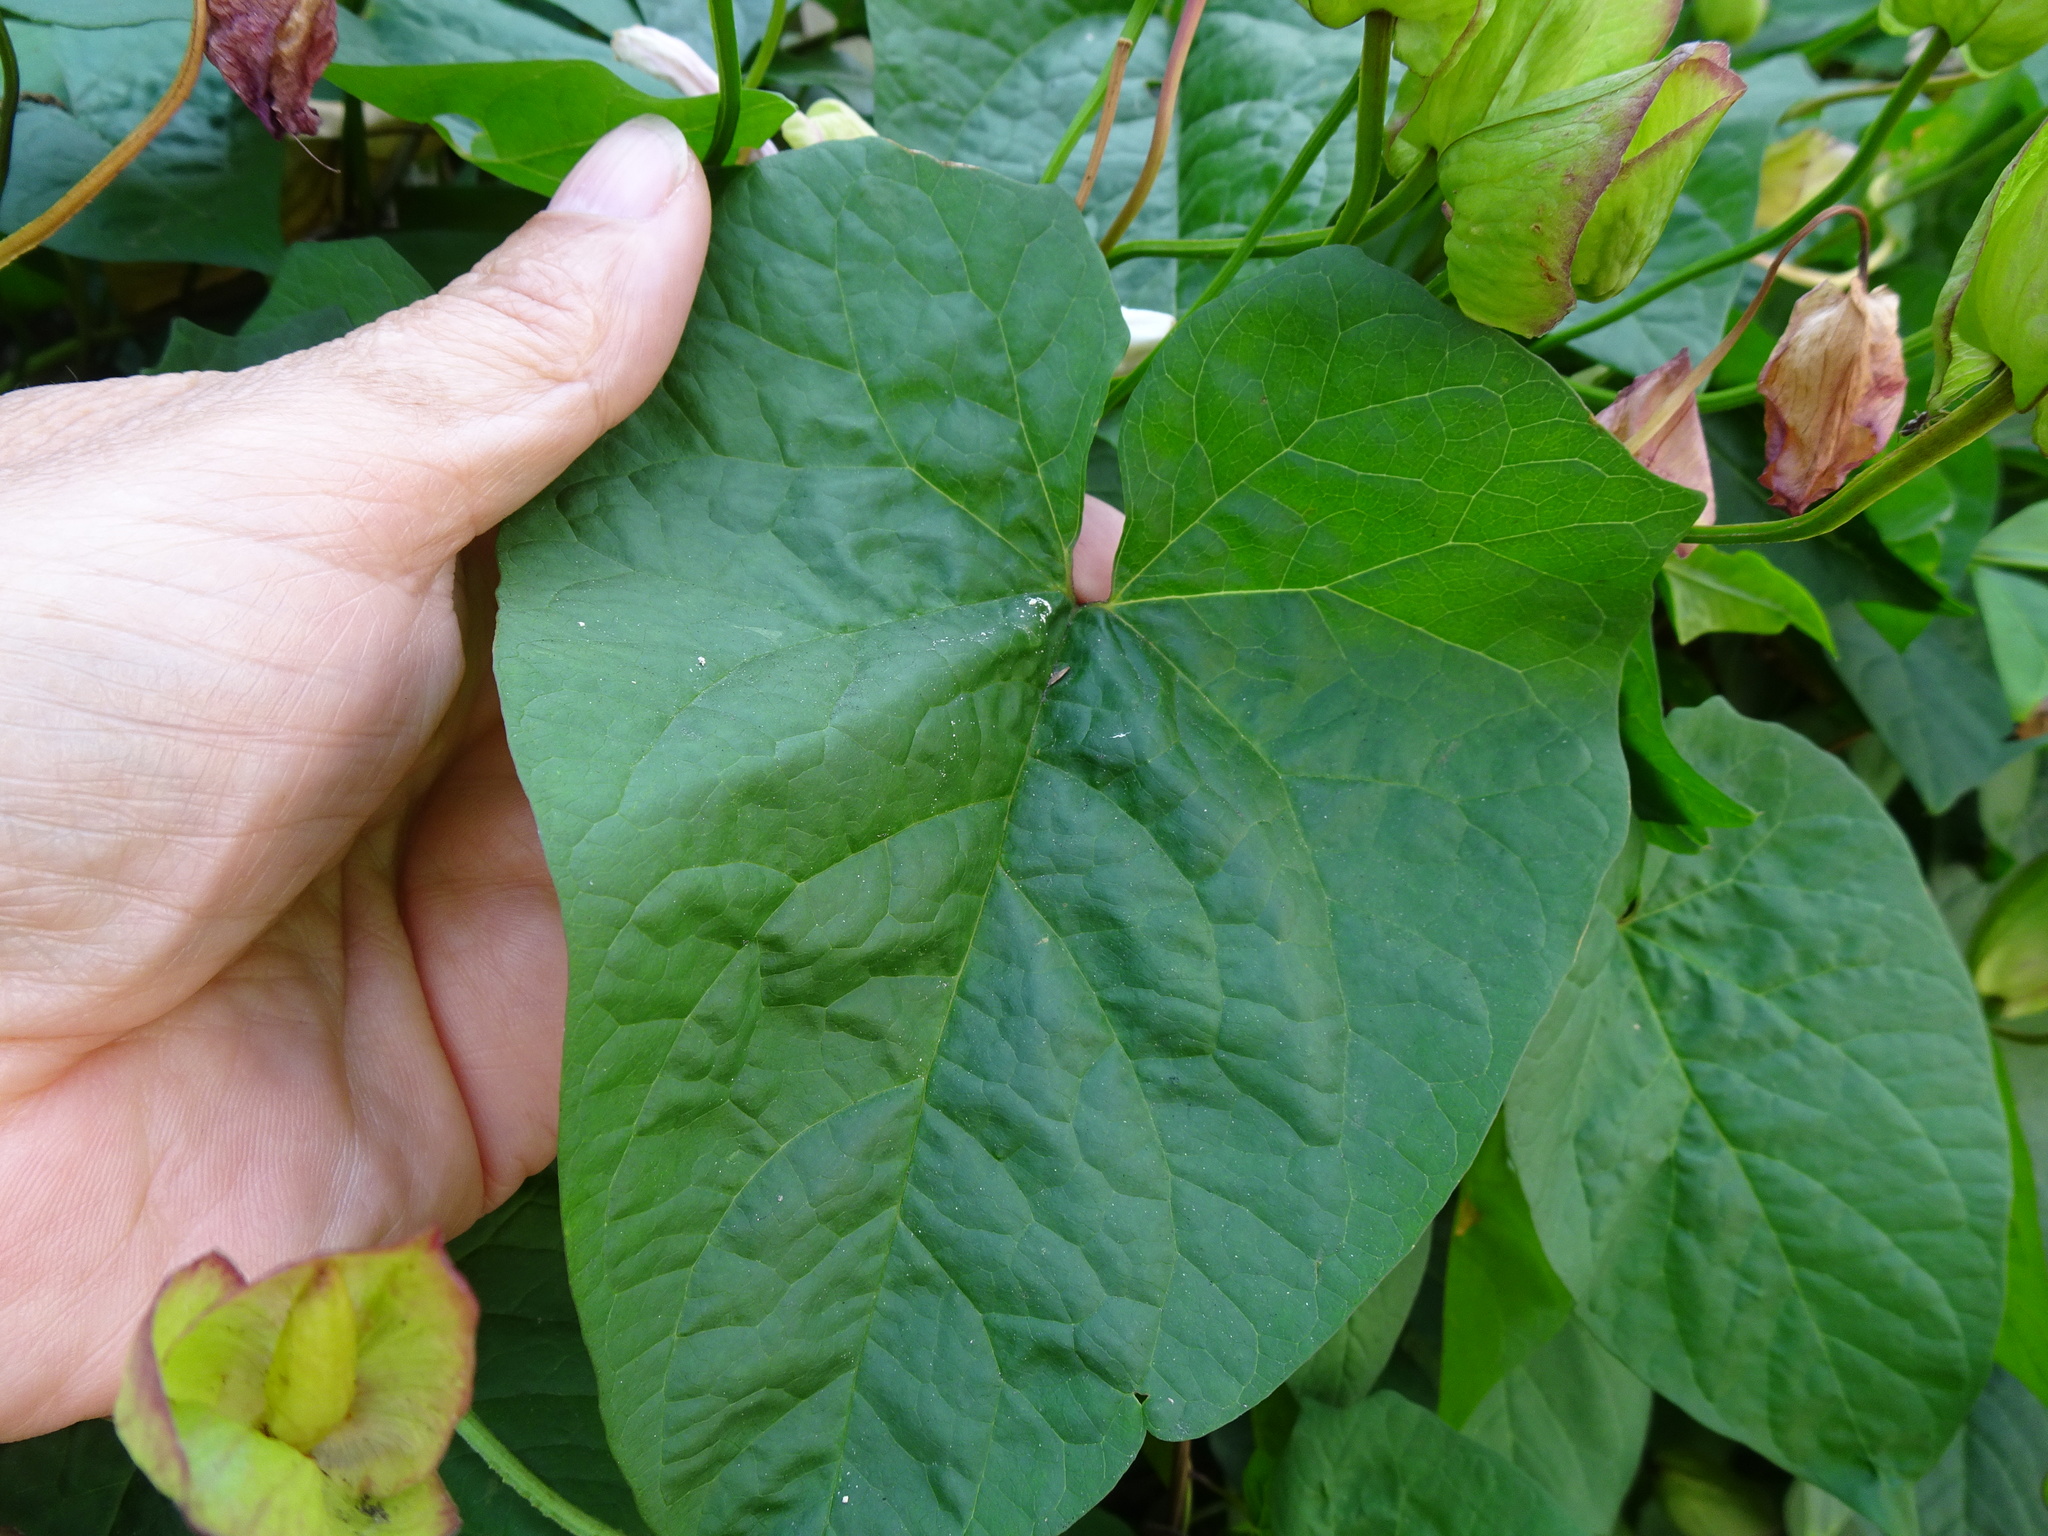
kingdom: Plantae
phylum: Tracheophyta
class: Magnoliopsida
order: Solanales
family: Convolvulaceae
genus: Calystegia
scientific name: Calystegia silvatica
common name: Large bindweed
